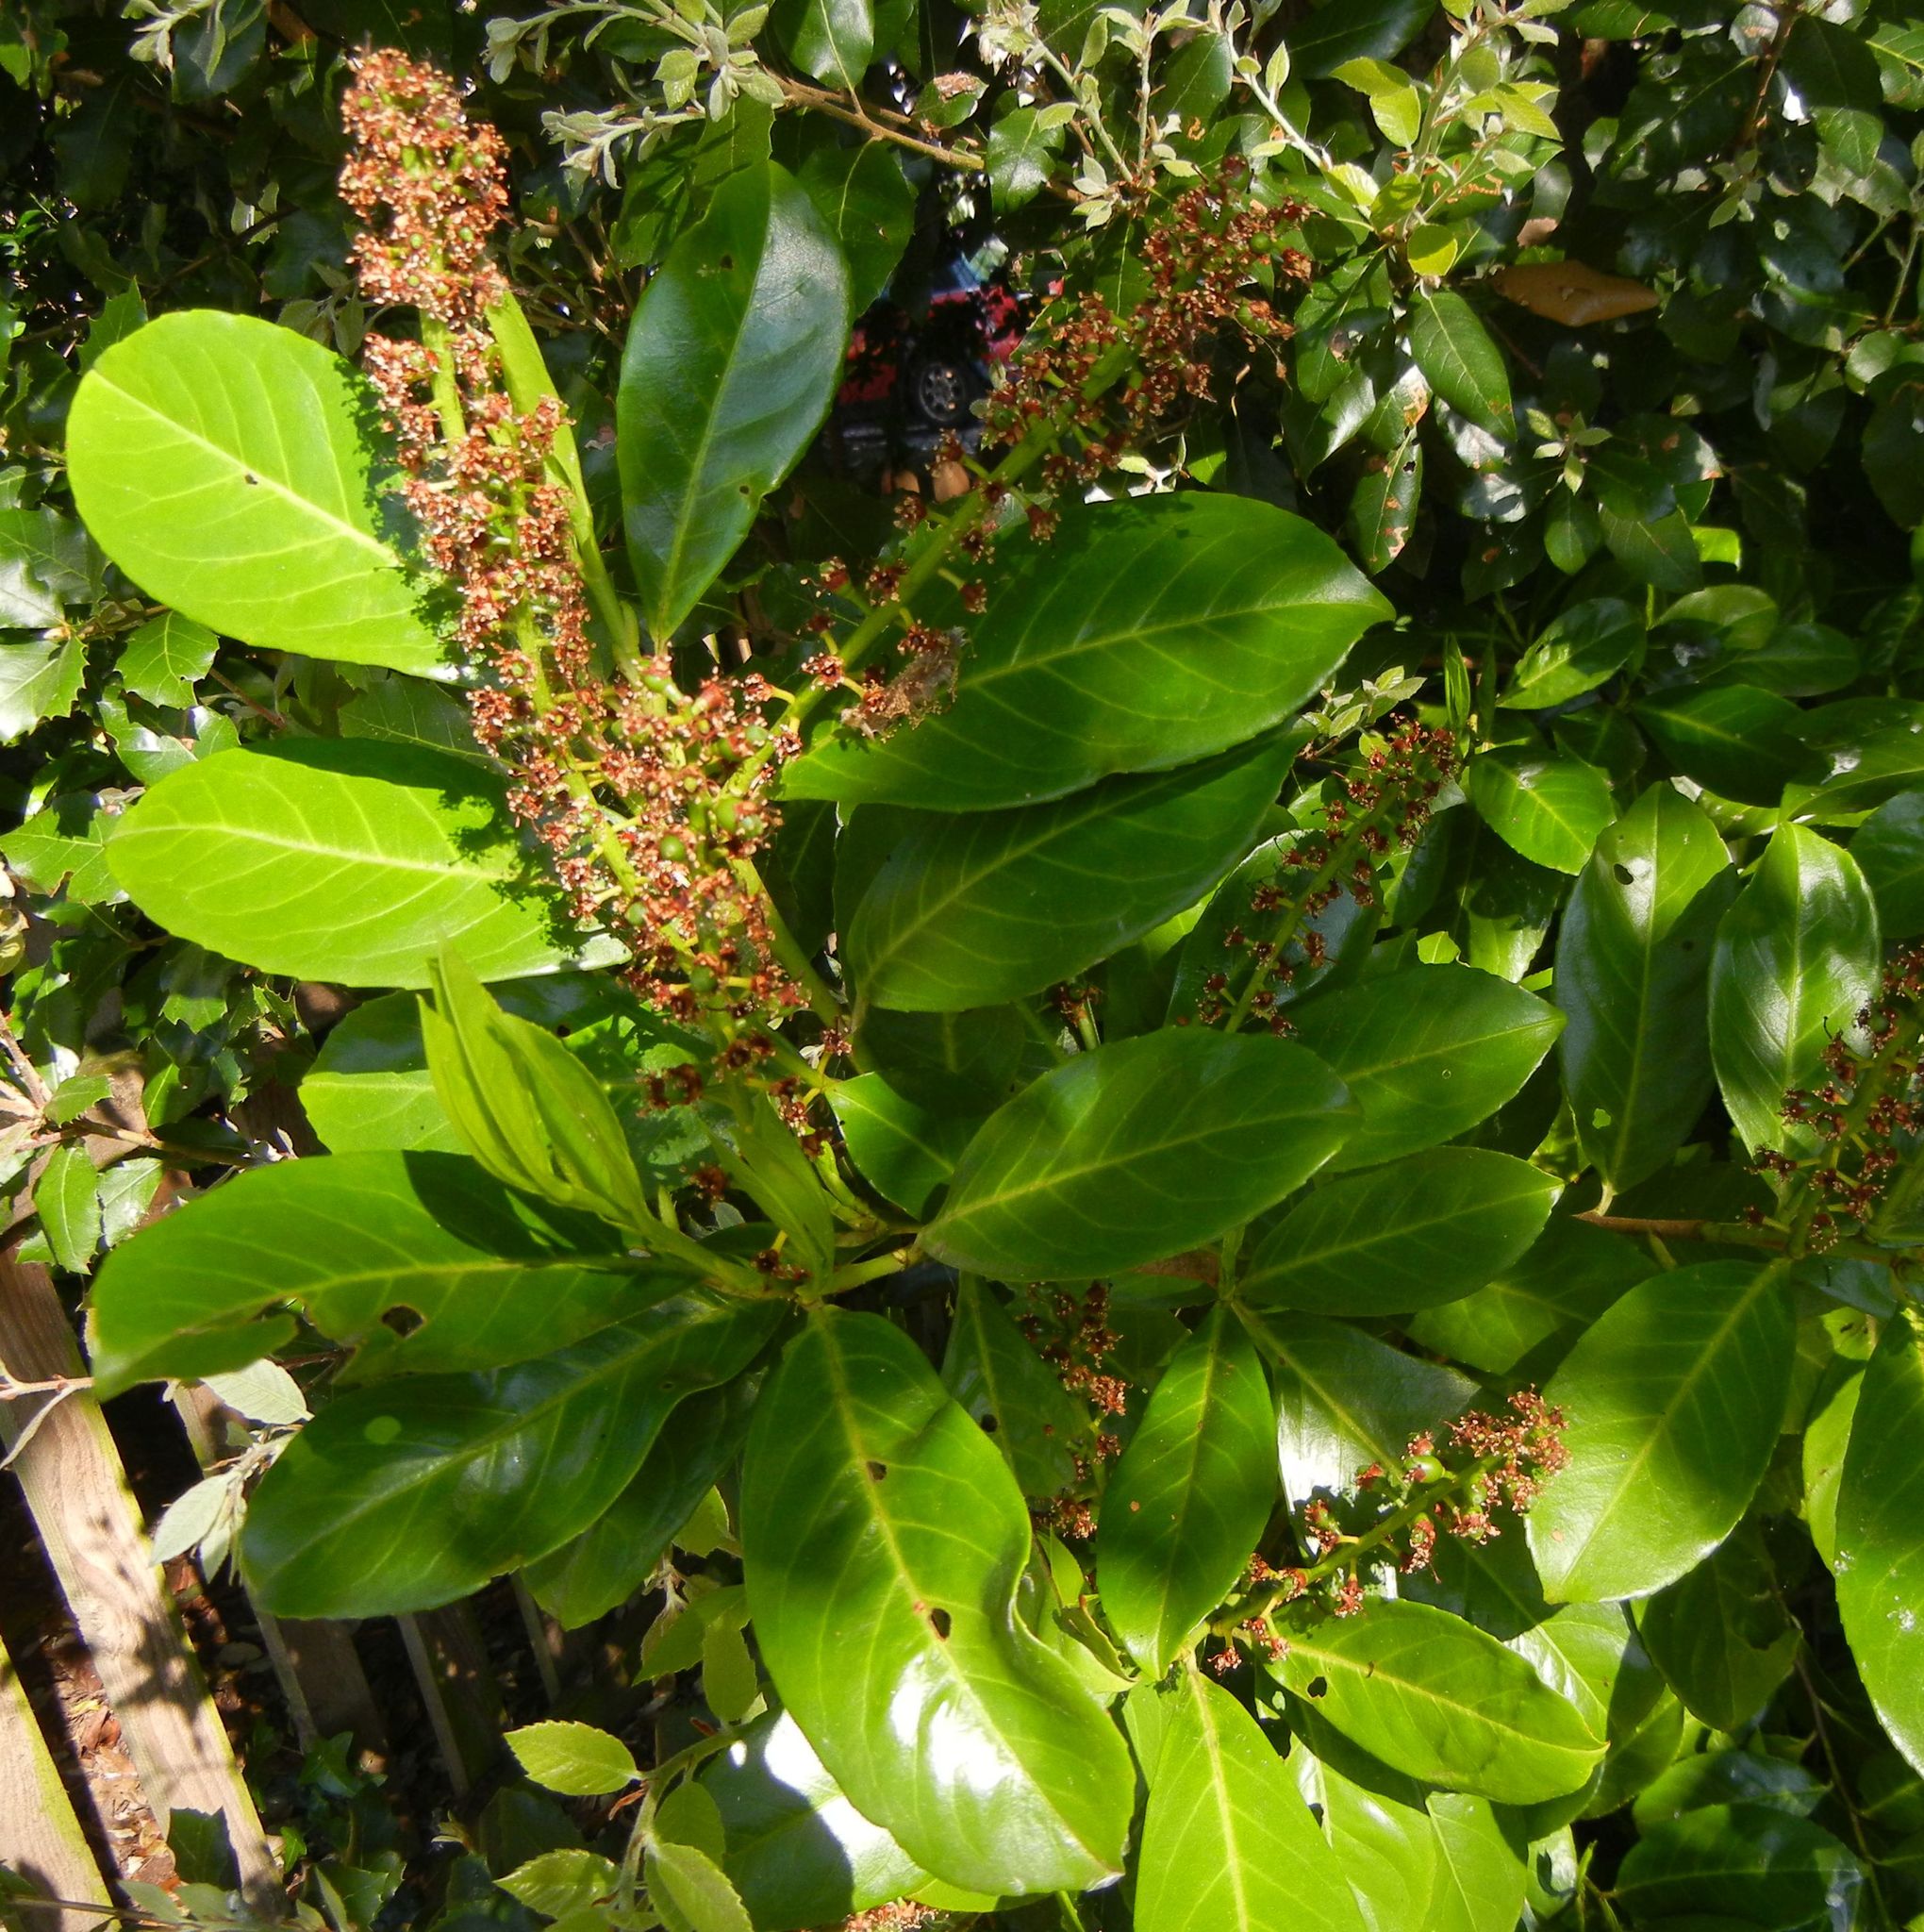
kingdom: Plantae
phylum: Tracheophyta
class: Magnoliopsida
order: Rosales
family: Rosaceae
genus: Prunus
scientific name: Prunus laurocerasus
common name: Cherry laurel
